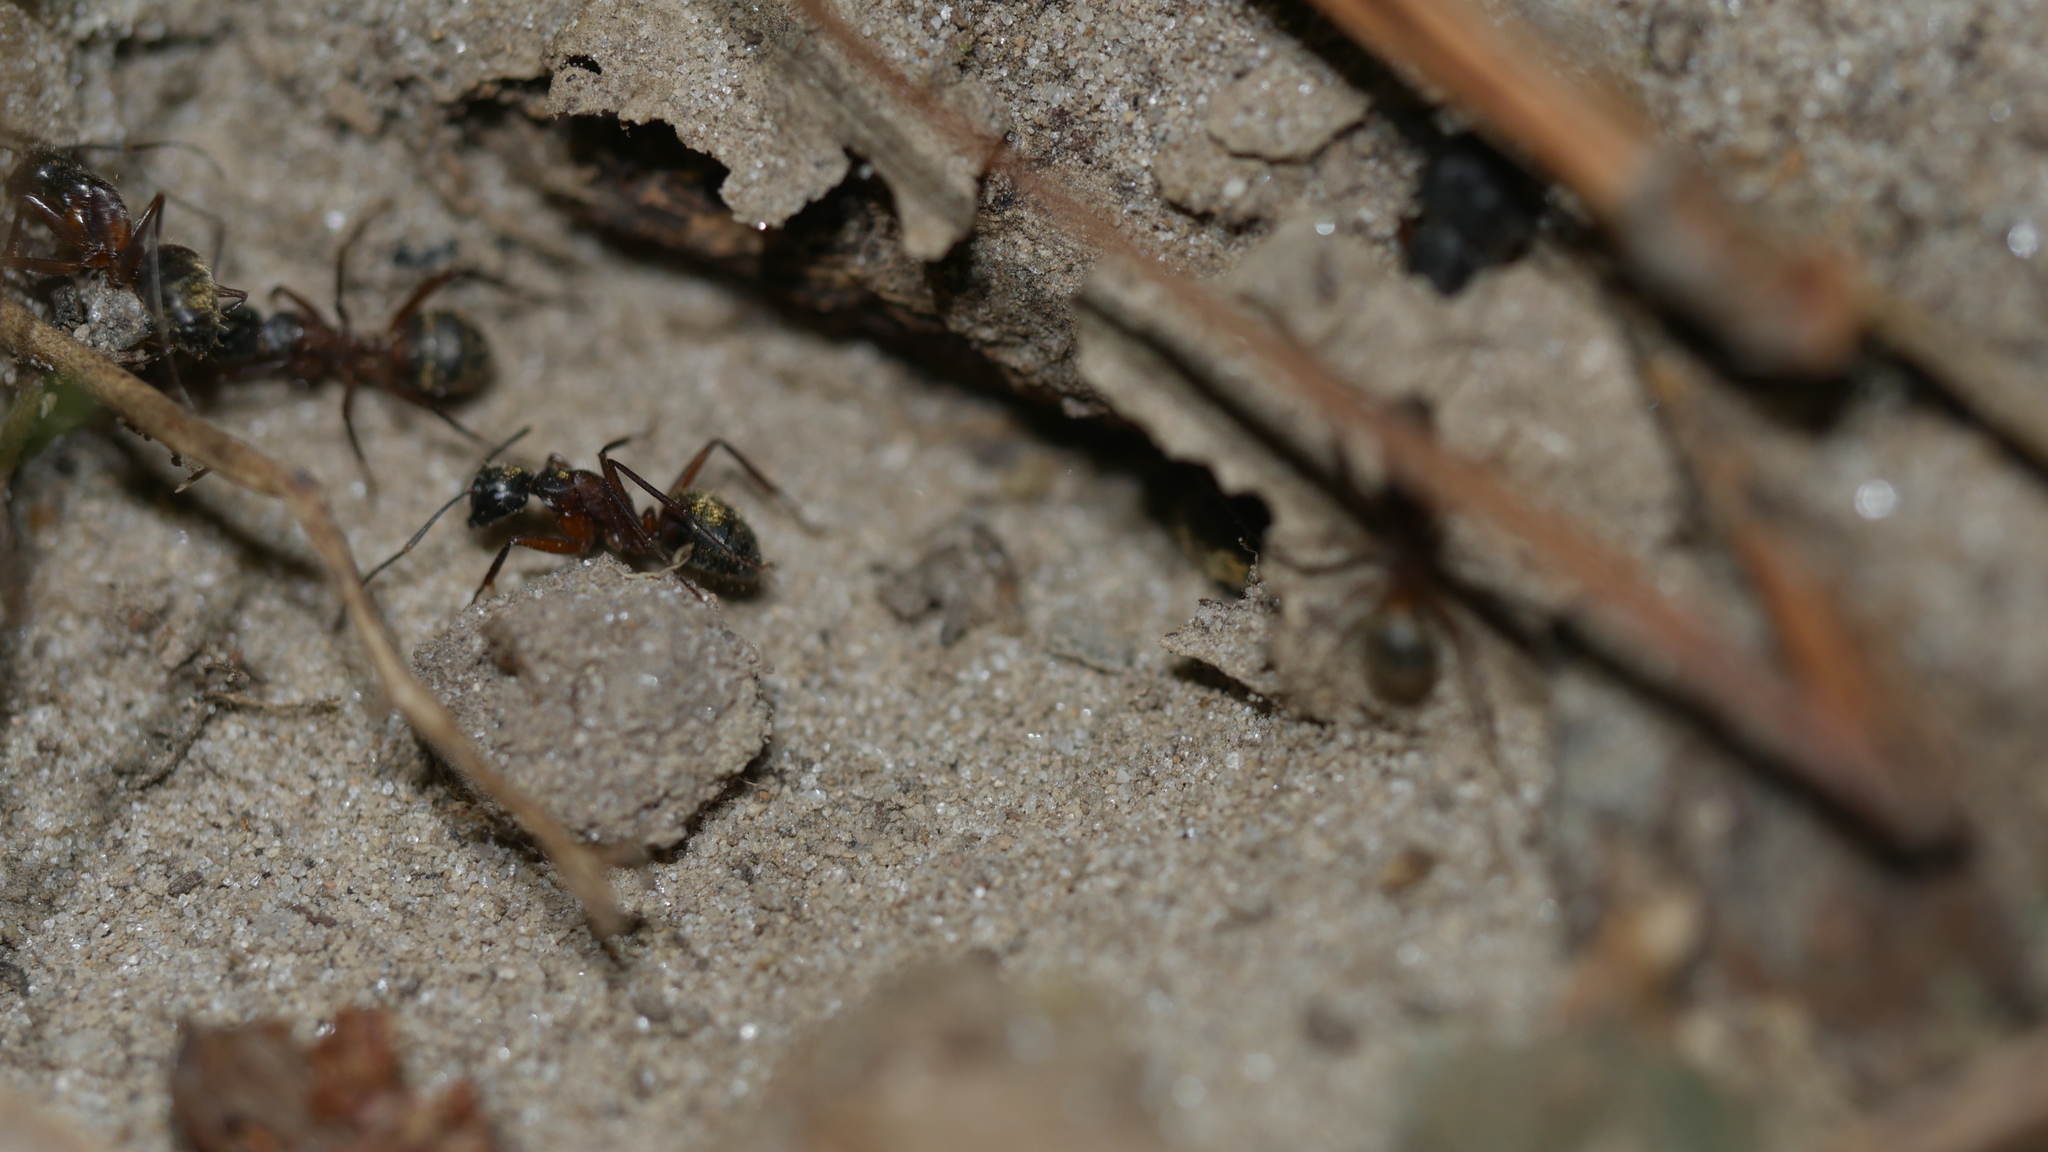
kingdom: Animalia
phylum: Arthropoda
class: Insecta
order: Hymenoptera
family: Formicidae
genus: Camponotus
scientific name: Camponotus chromaiodes
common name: Red carpenter ant
